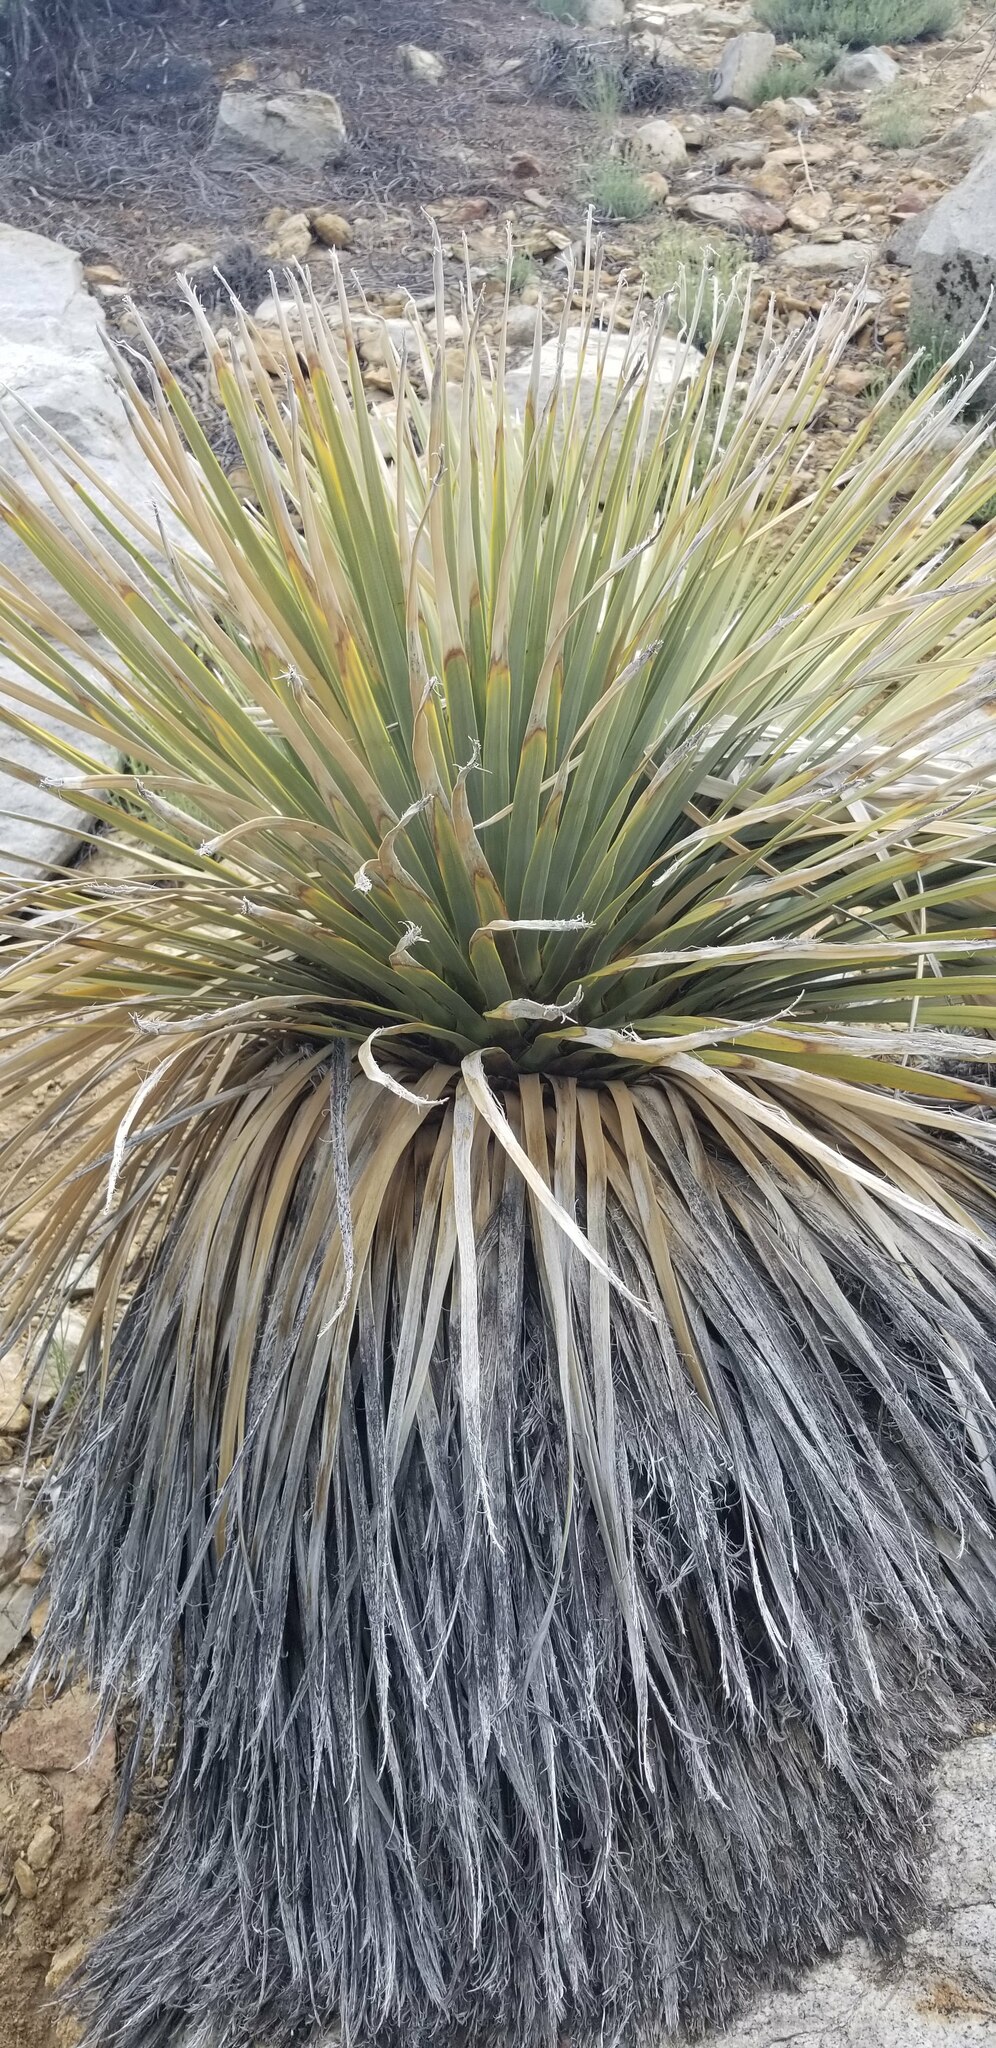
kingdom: Plantae
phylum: Tracheophyta
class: Liliopsida
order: Asparagales
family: Asparagaceae
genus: Nolina
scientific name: Nolina parryi
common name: Parry nolina
